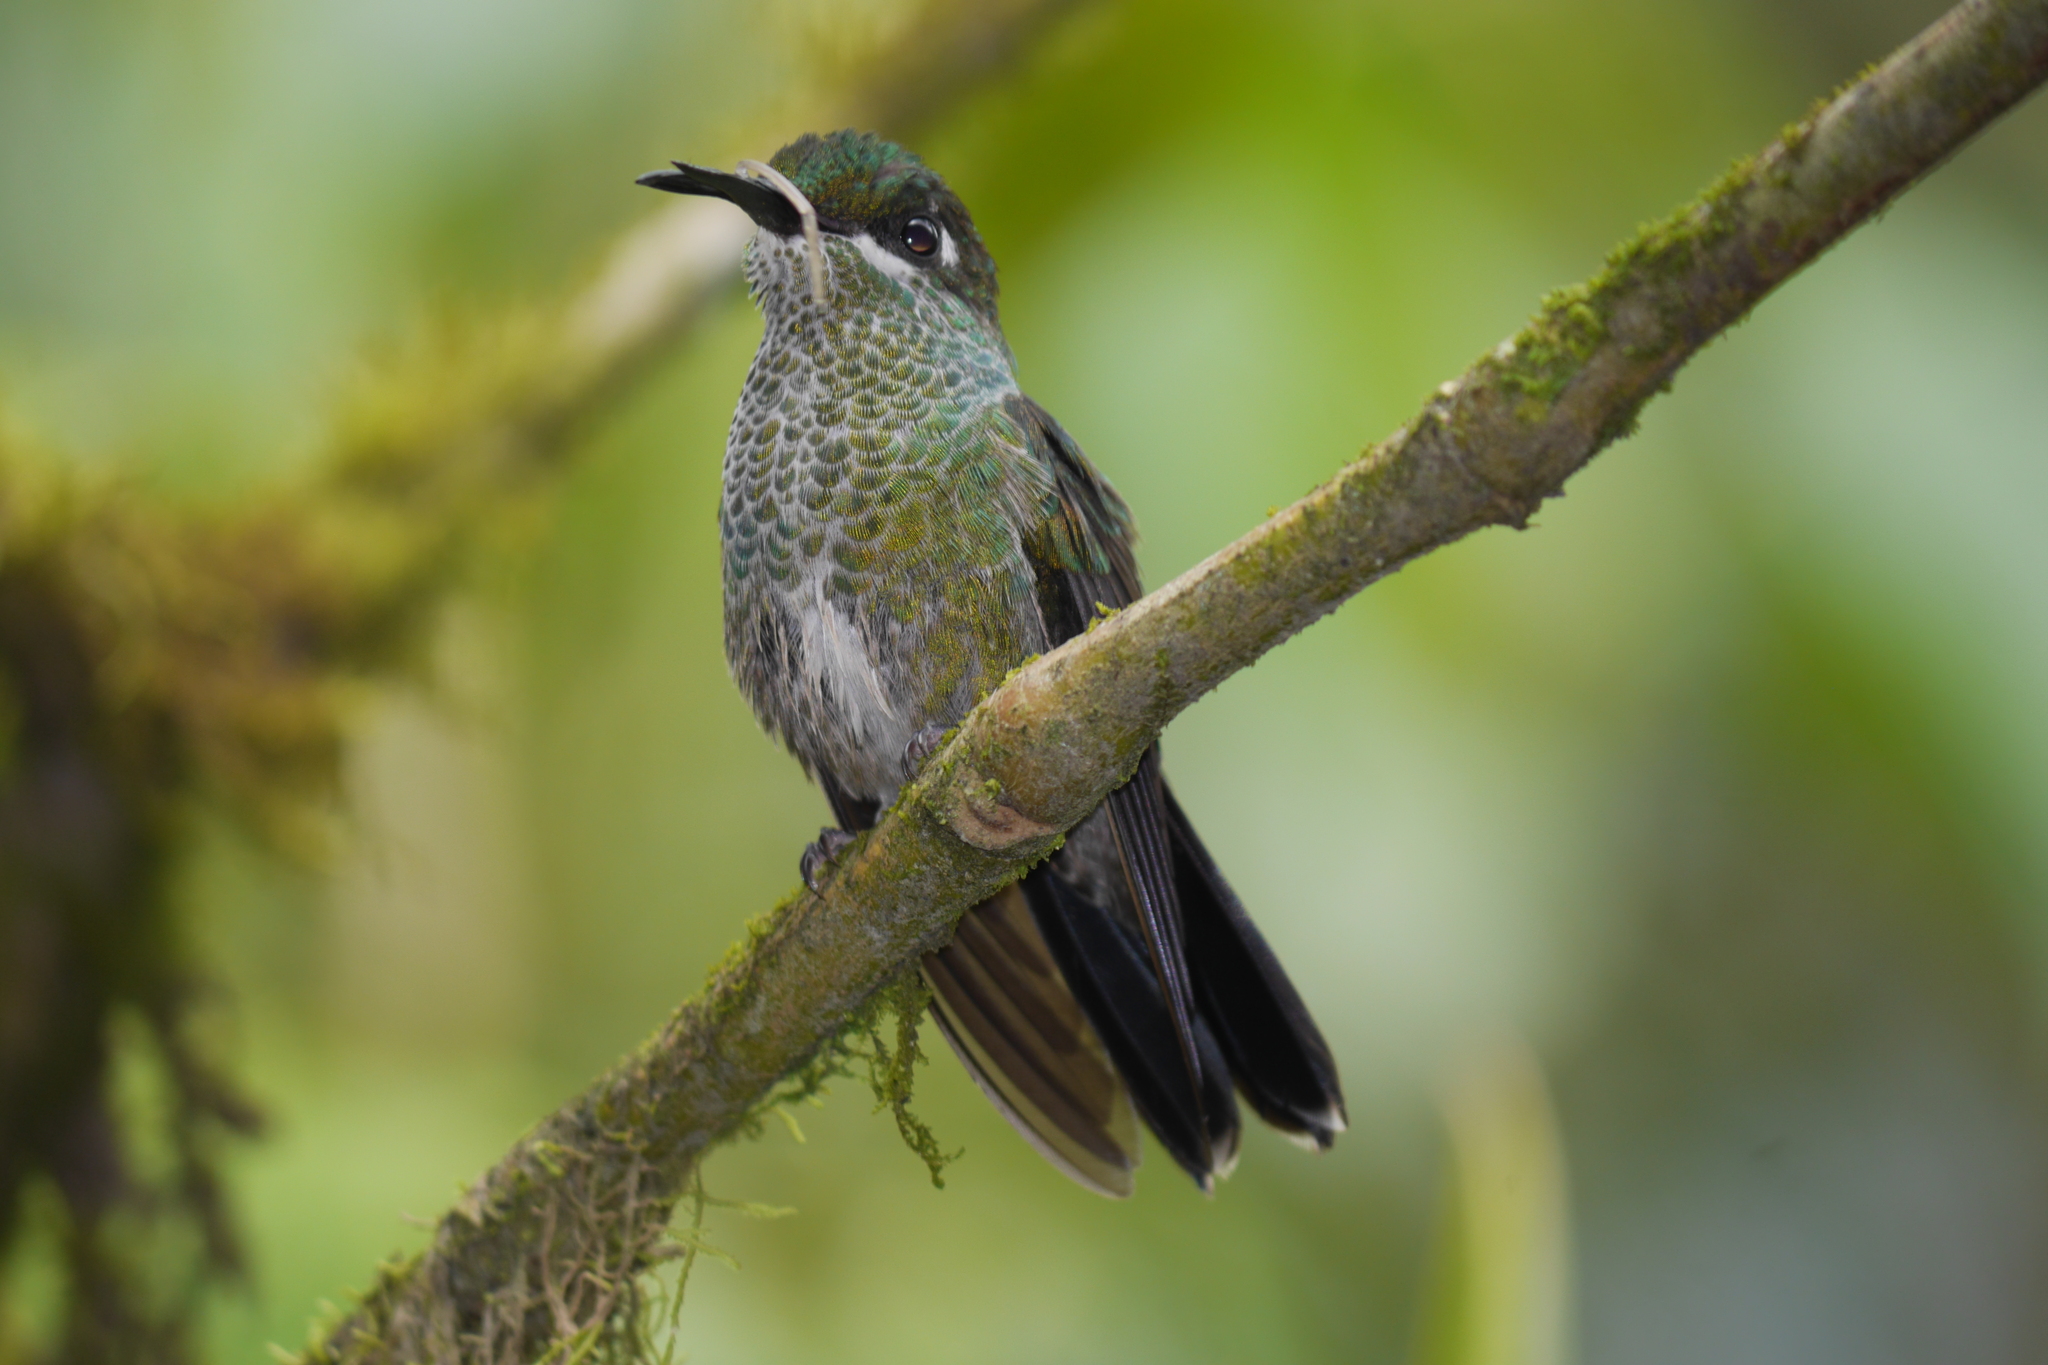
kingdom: Animalia
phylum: Chordata
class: Aves
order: Apodiformes
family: Trochilidae
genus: Heliodoxa
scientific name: Heliodoxa jacula
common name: Green-crowned brilliant
